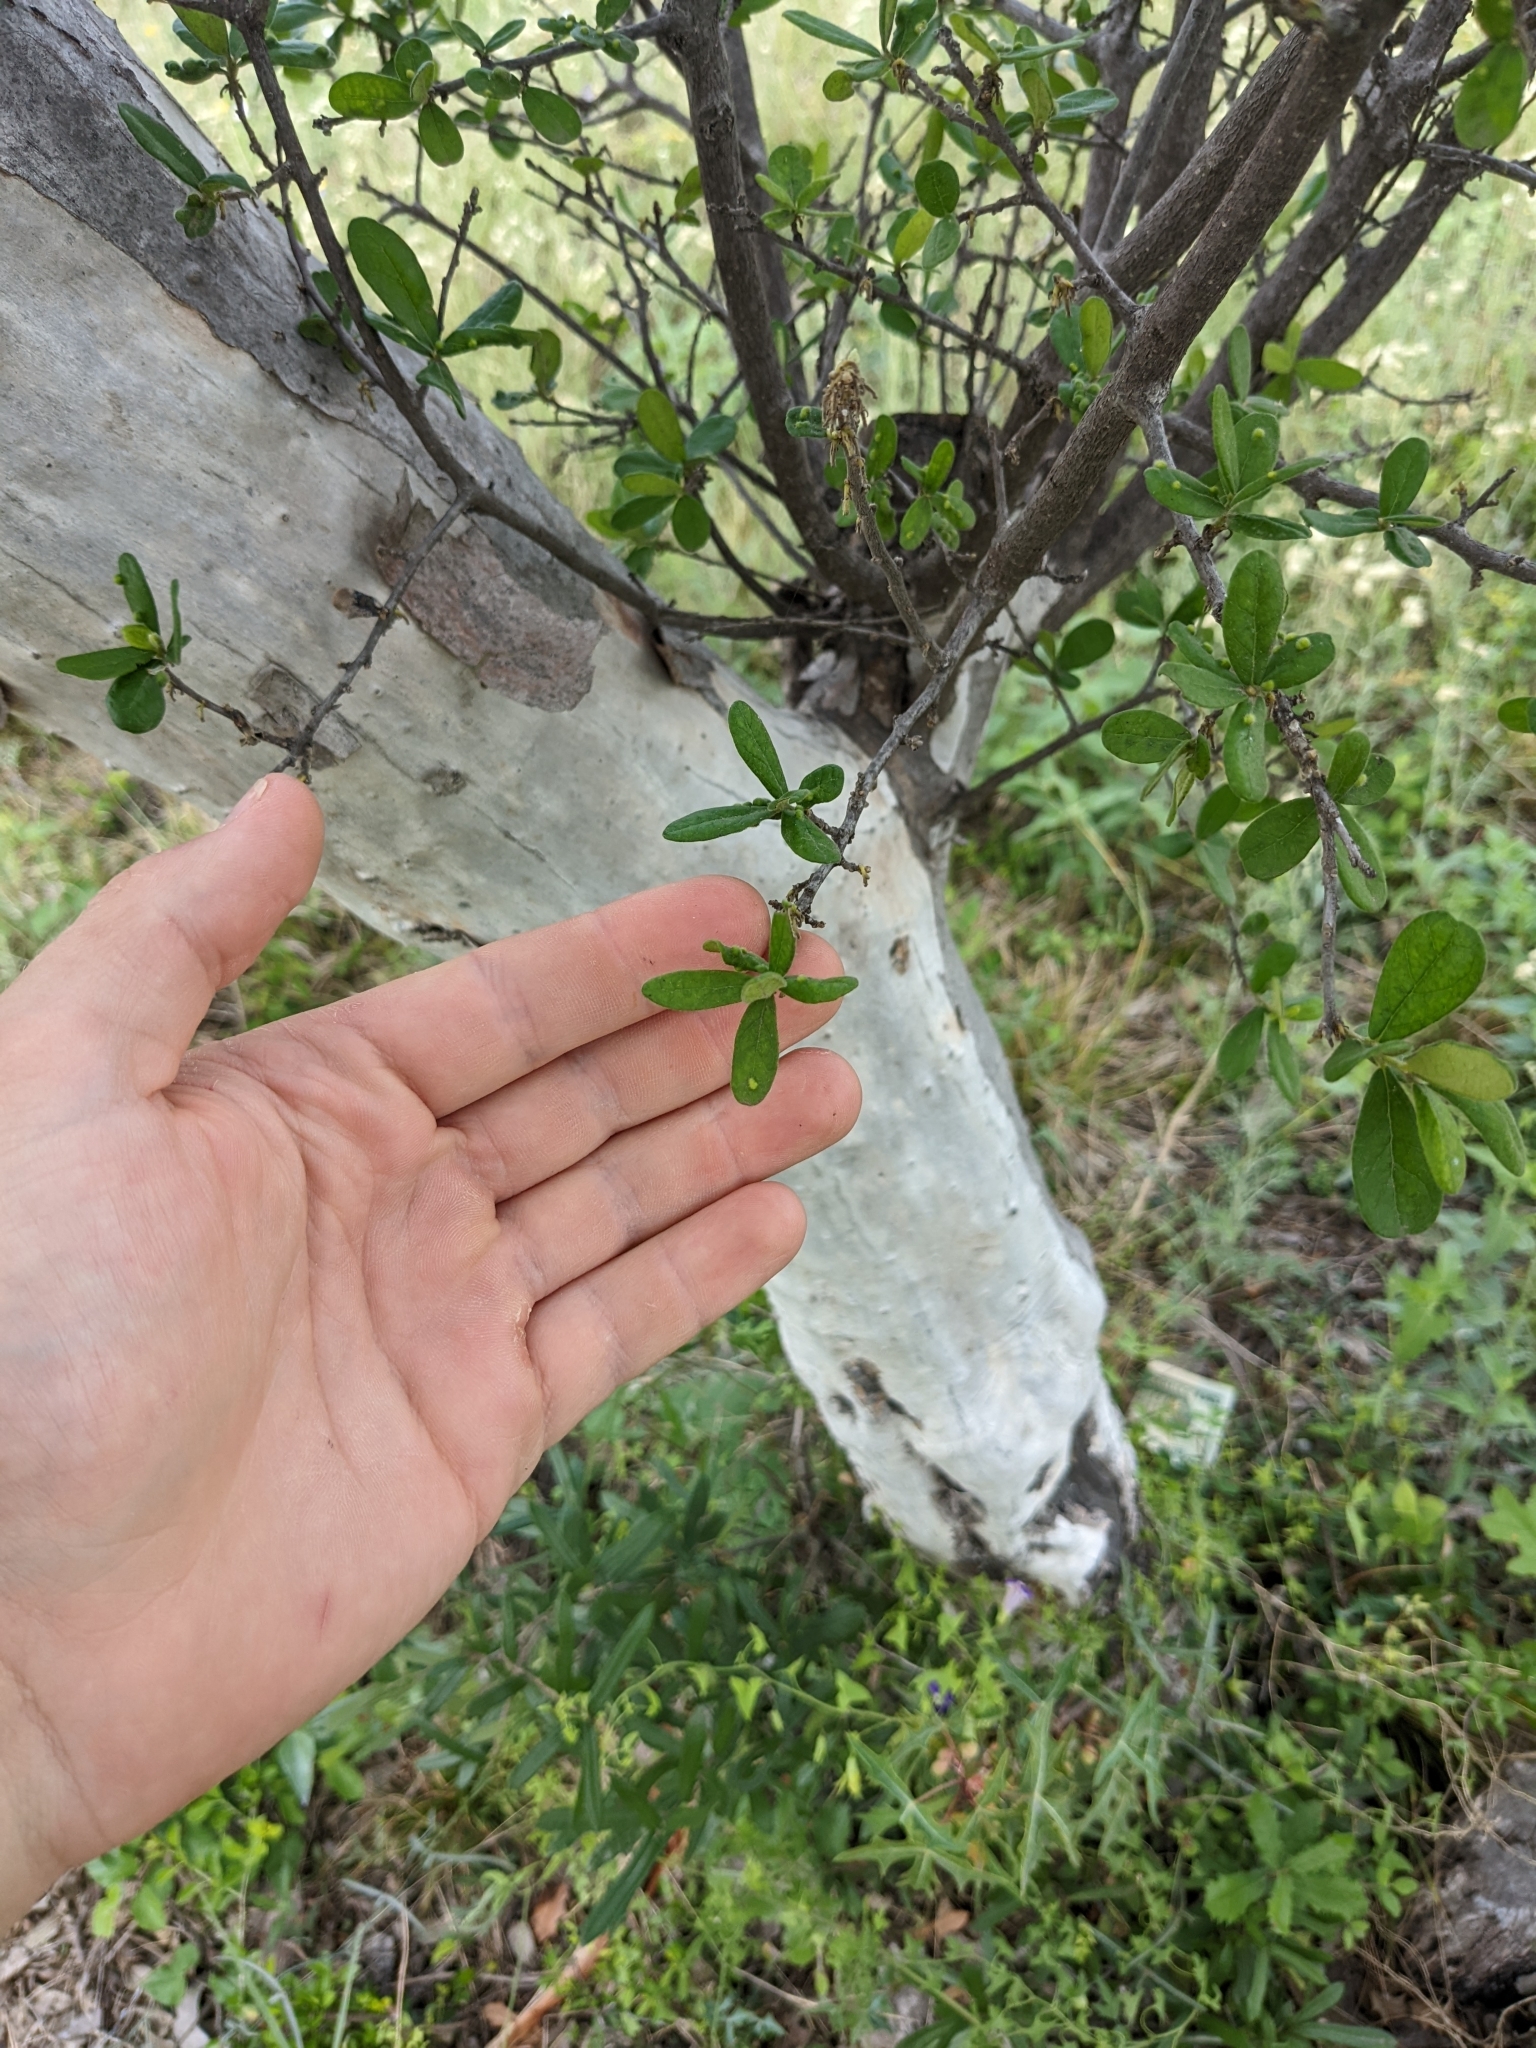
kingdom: Plantae
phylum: Tracheophyta
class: Magnoliopsida
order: Ericales
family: Ebenaceae
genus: Diospyros
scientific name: Diospyros texana
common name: Texas persimmon
